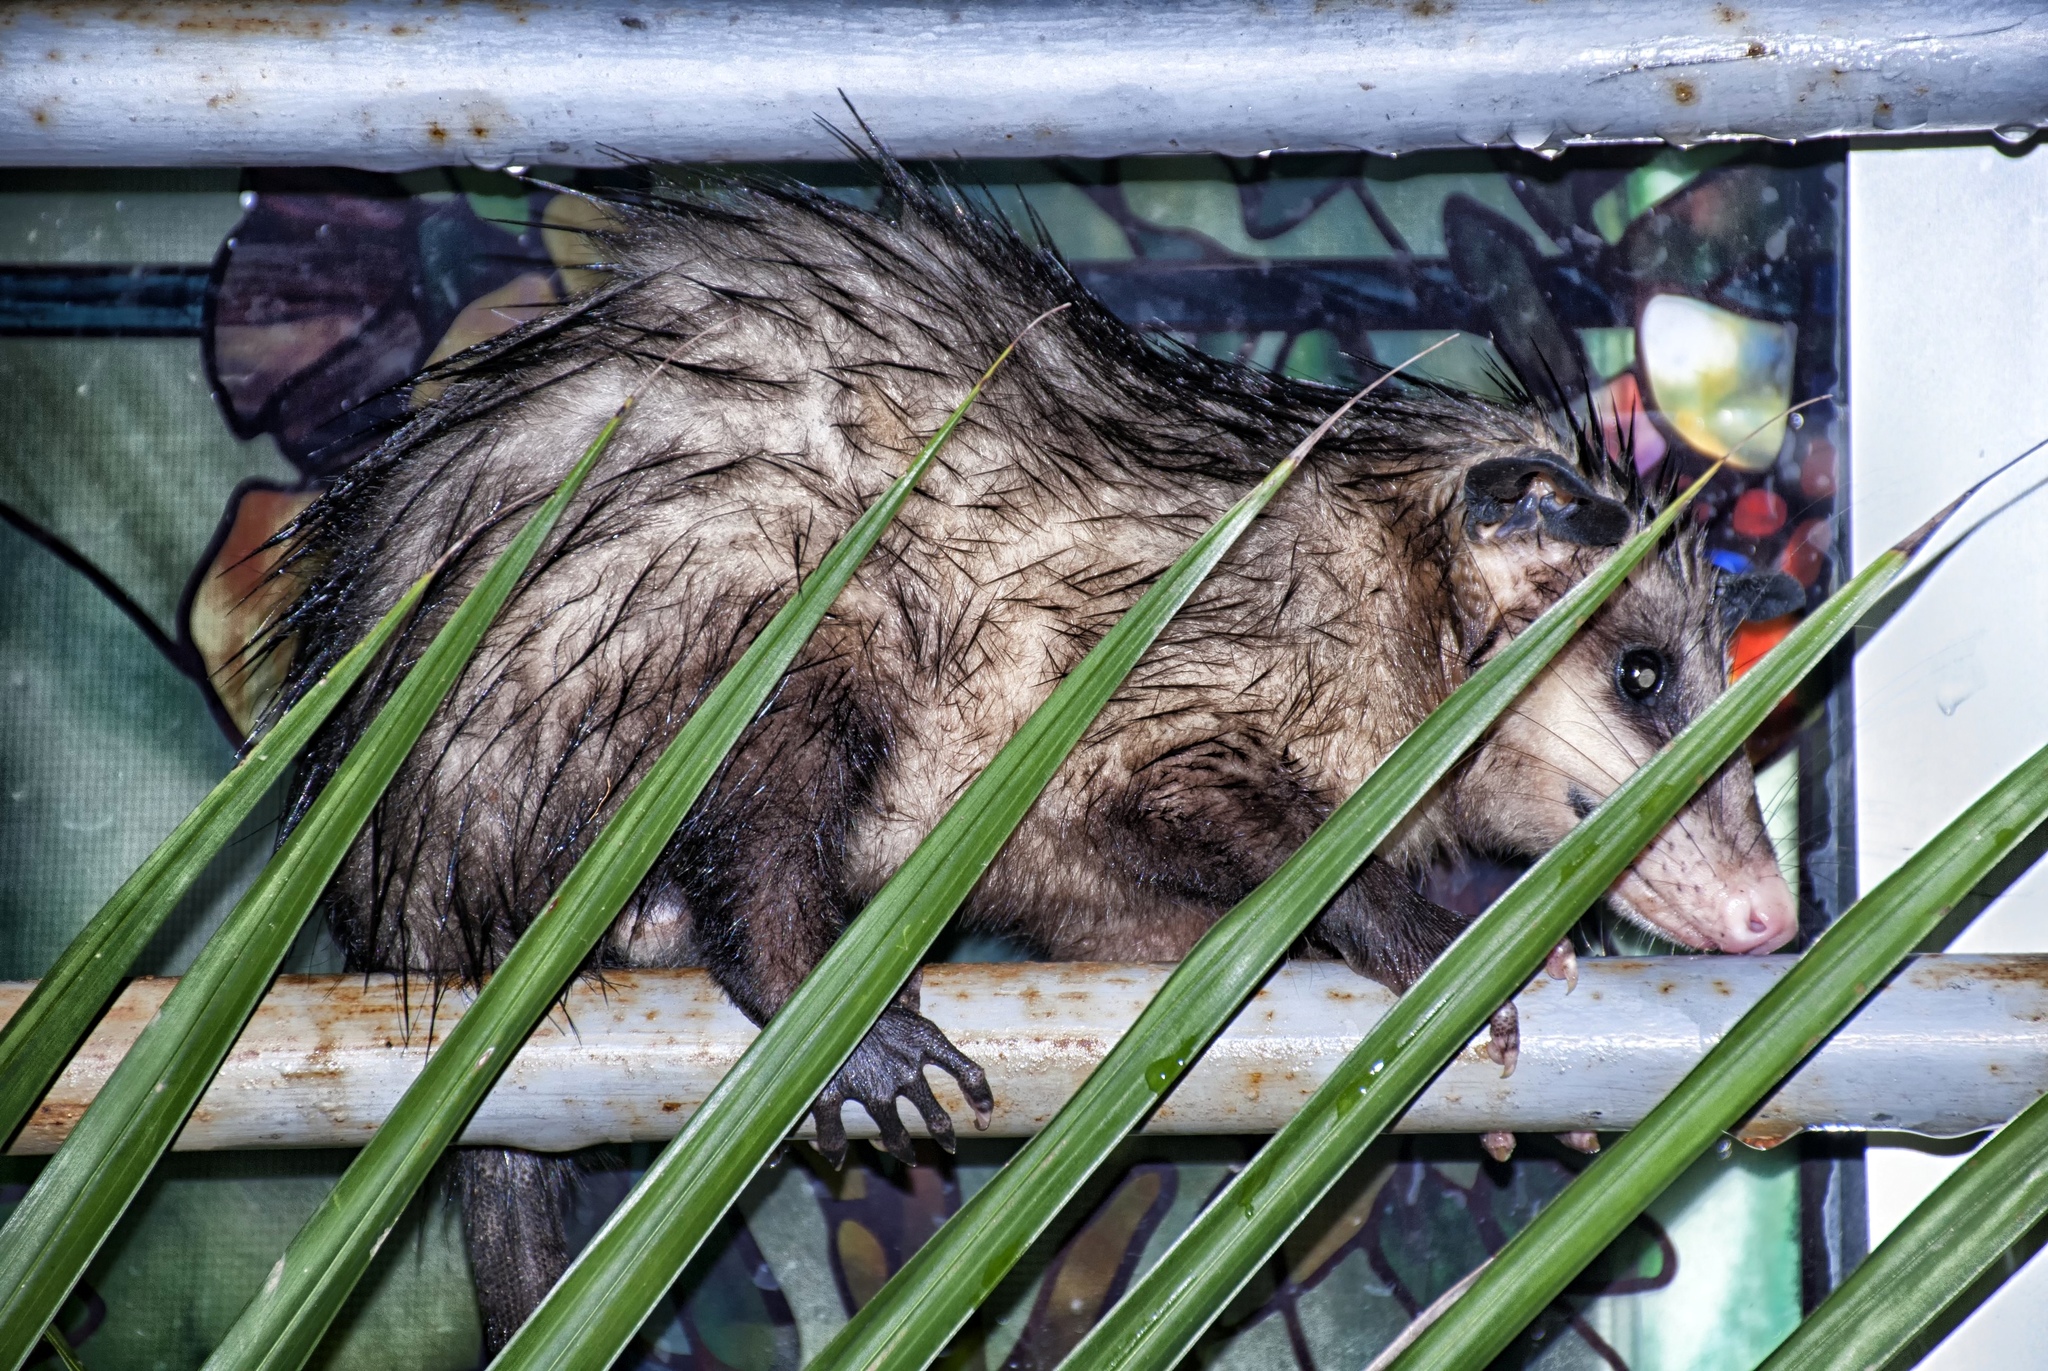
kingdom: Animalia
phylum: Chordata
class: Mammalia
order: Didelphimorphia
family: Didelphidae
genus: Didelphis
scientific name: Didelphis virginiana
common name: Virginia opossum
